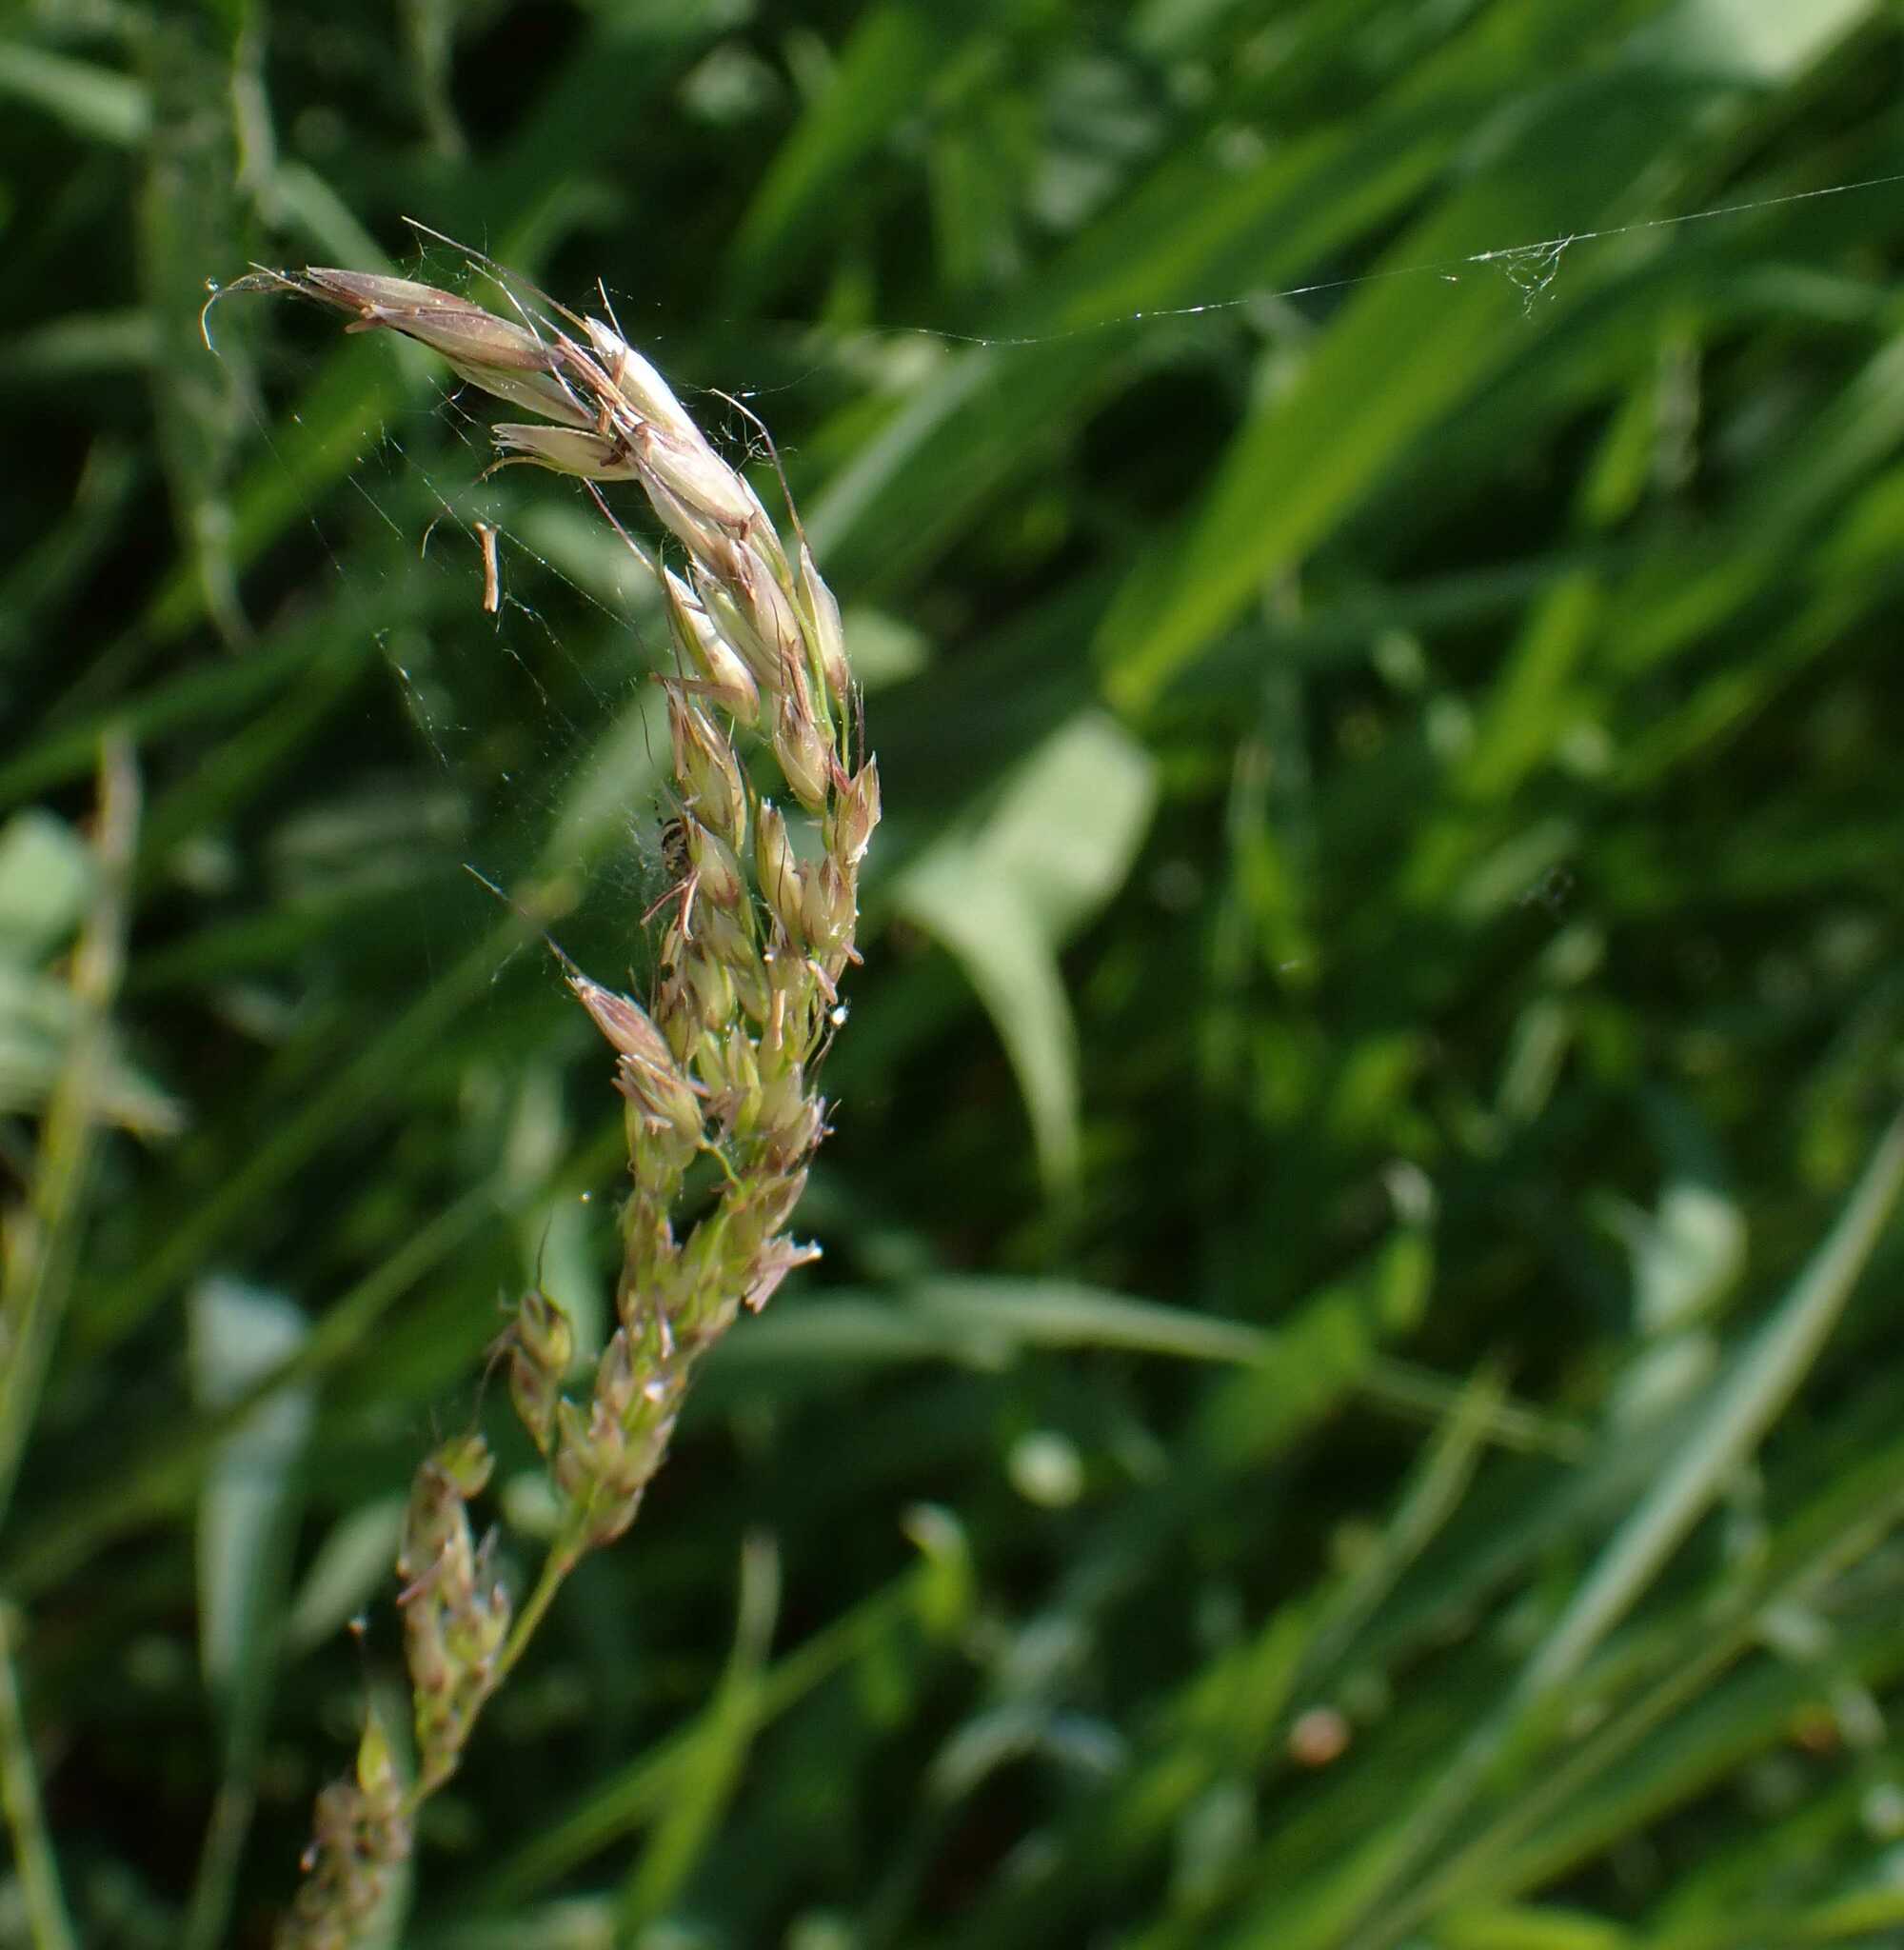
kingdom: Animalia
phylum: Arthropoda
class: Arachnida
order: Araneae
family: Araneidae
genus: Neoscona
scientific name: Neoscona adianta
